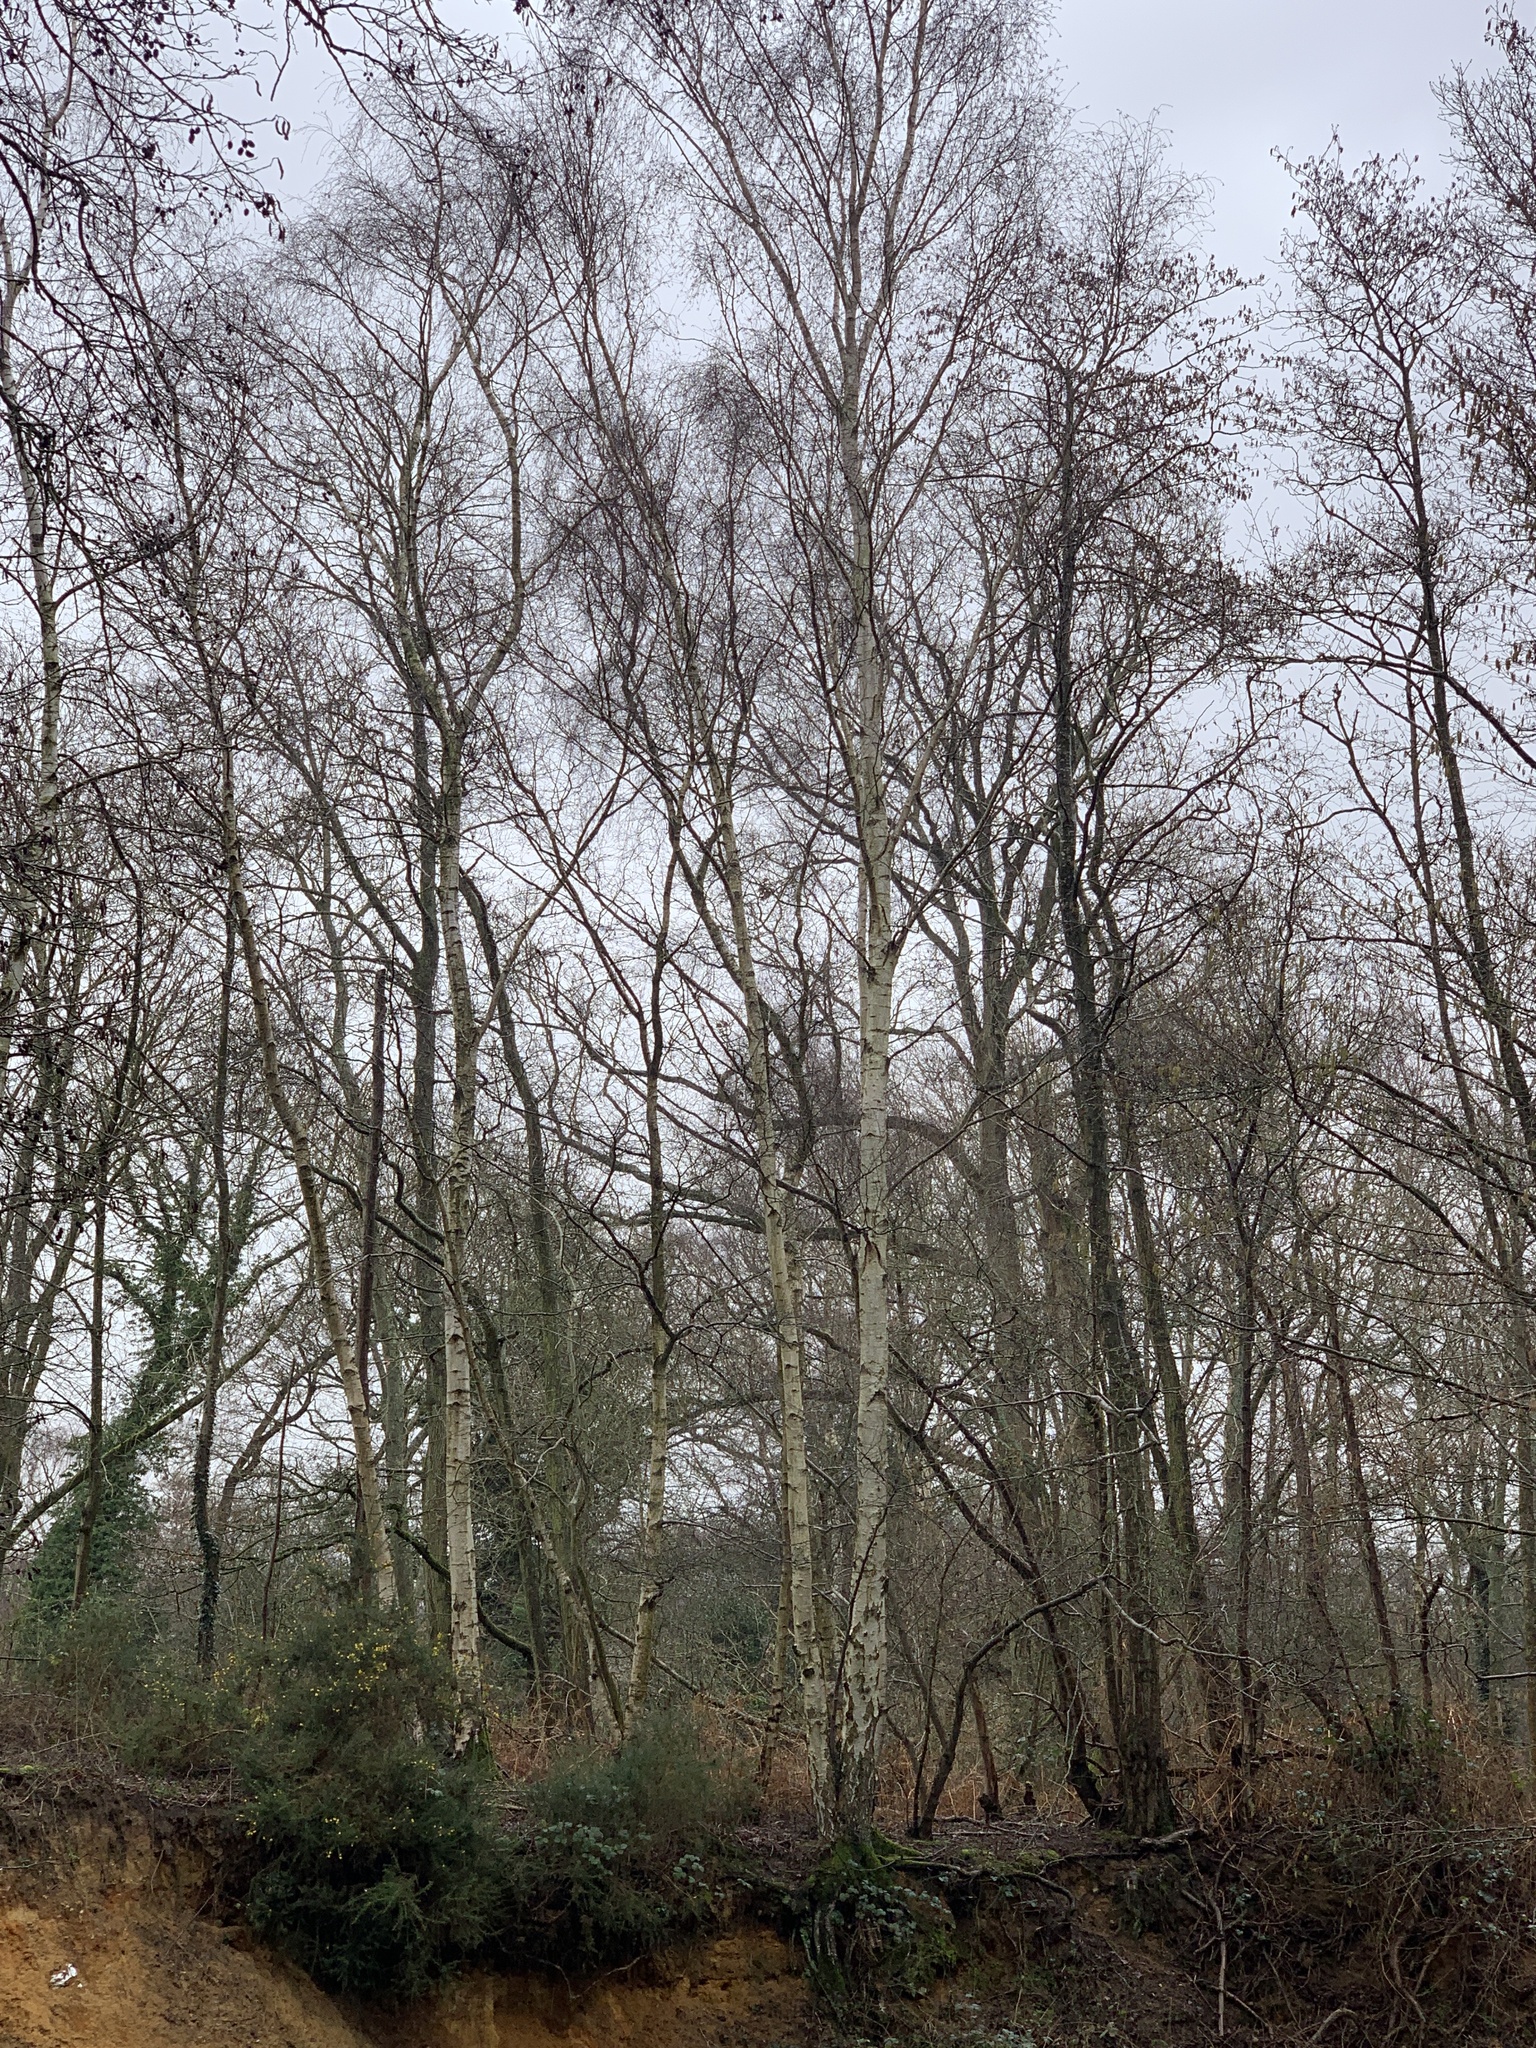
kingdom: Plantae
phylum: Tracheophyta
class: Magnoliopsida
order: Fagales
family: Betulaceae
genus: Betula
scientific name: Betula pendula
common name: Silver birch
